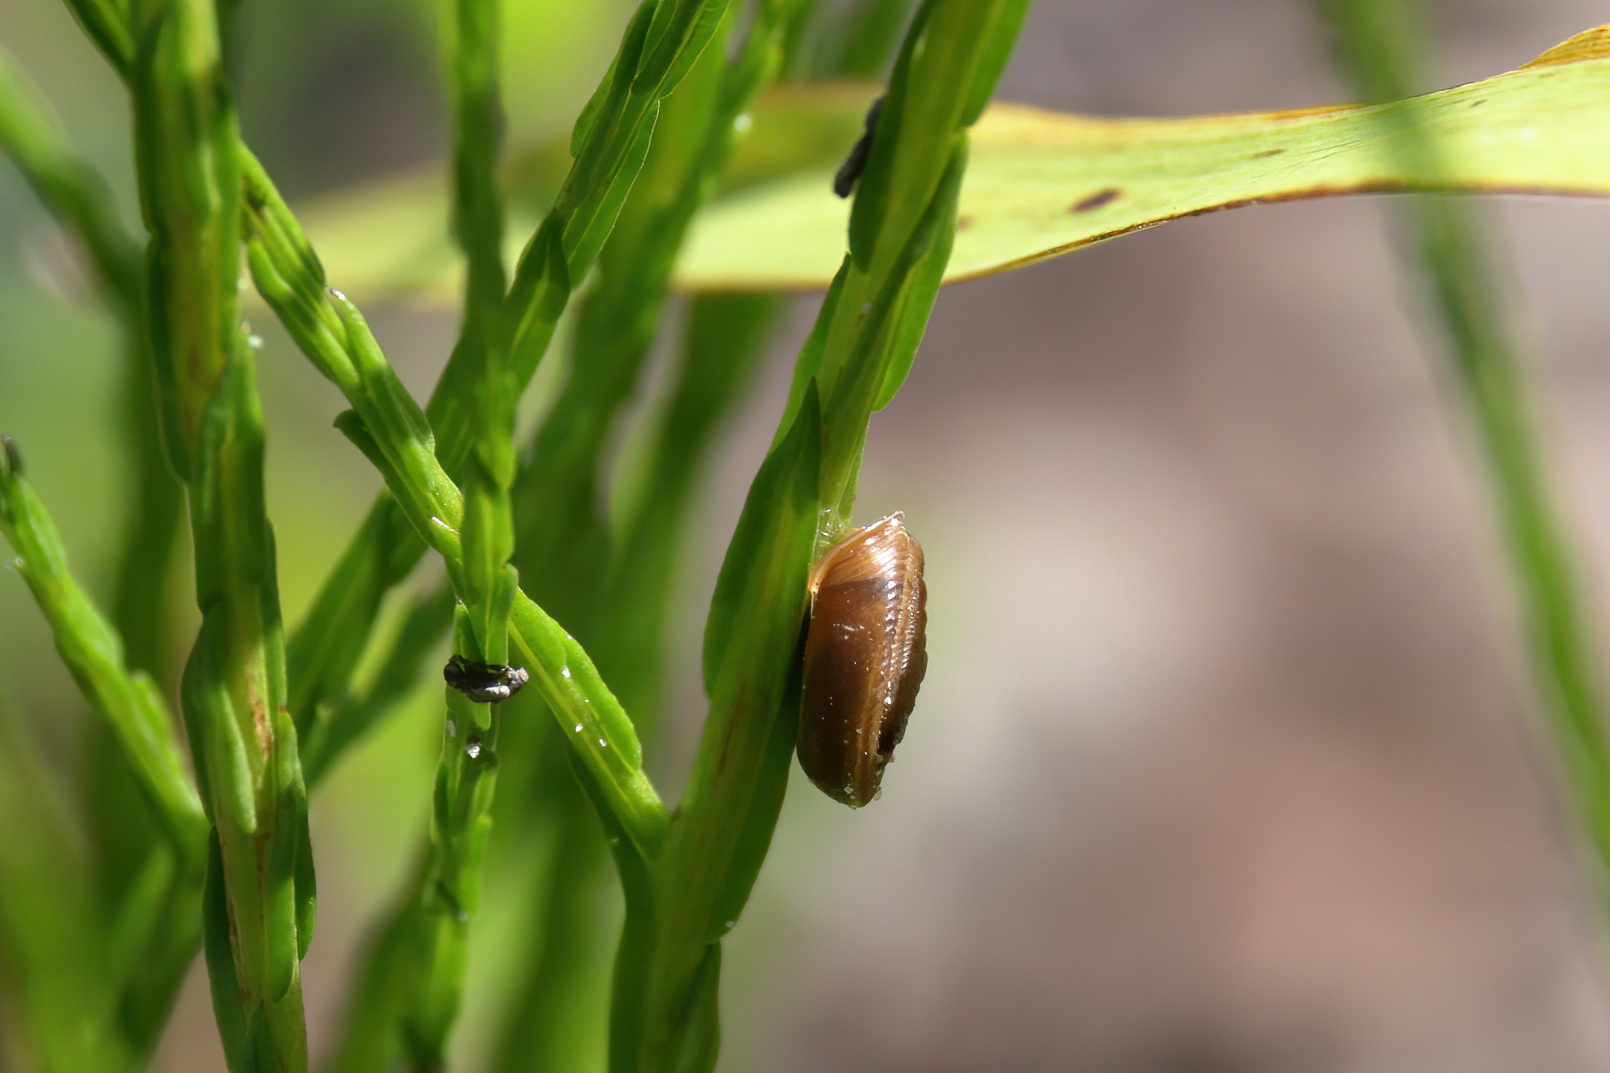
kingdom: Animalia
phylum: Mollusca
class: Gastropoda
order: Stylommatophora
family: Polygyridae
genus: Polygyra
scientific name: Polygyra cereolus
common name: Southern flatcone snail
